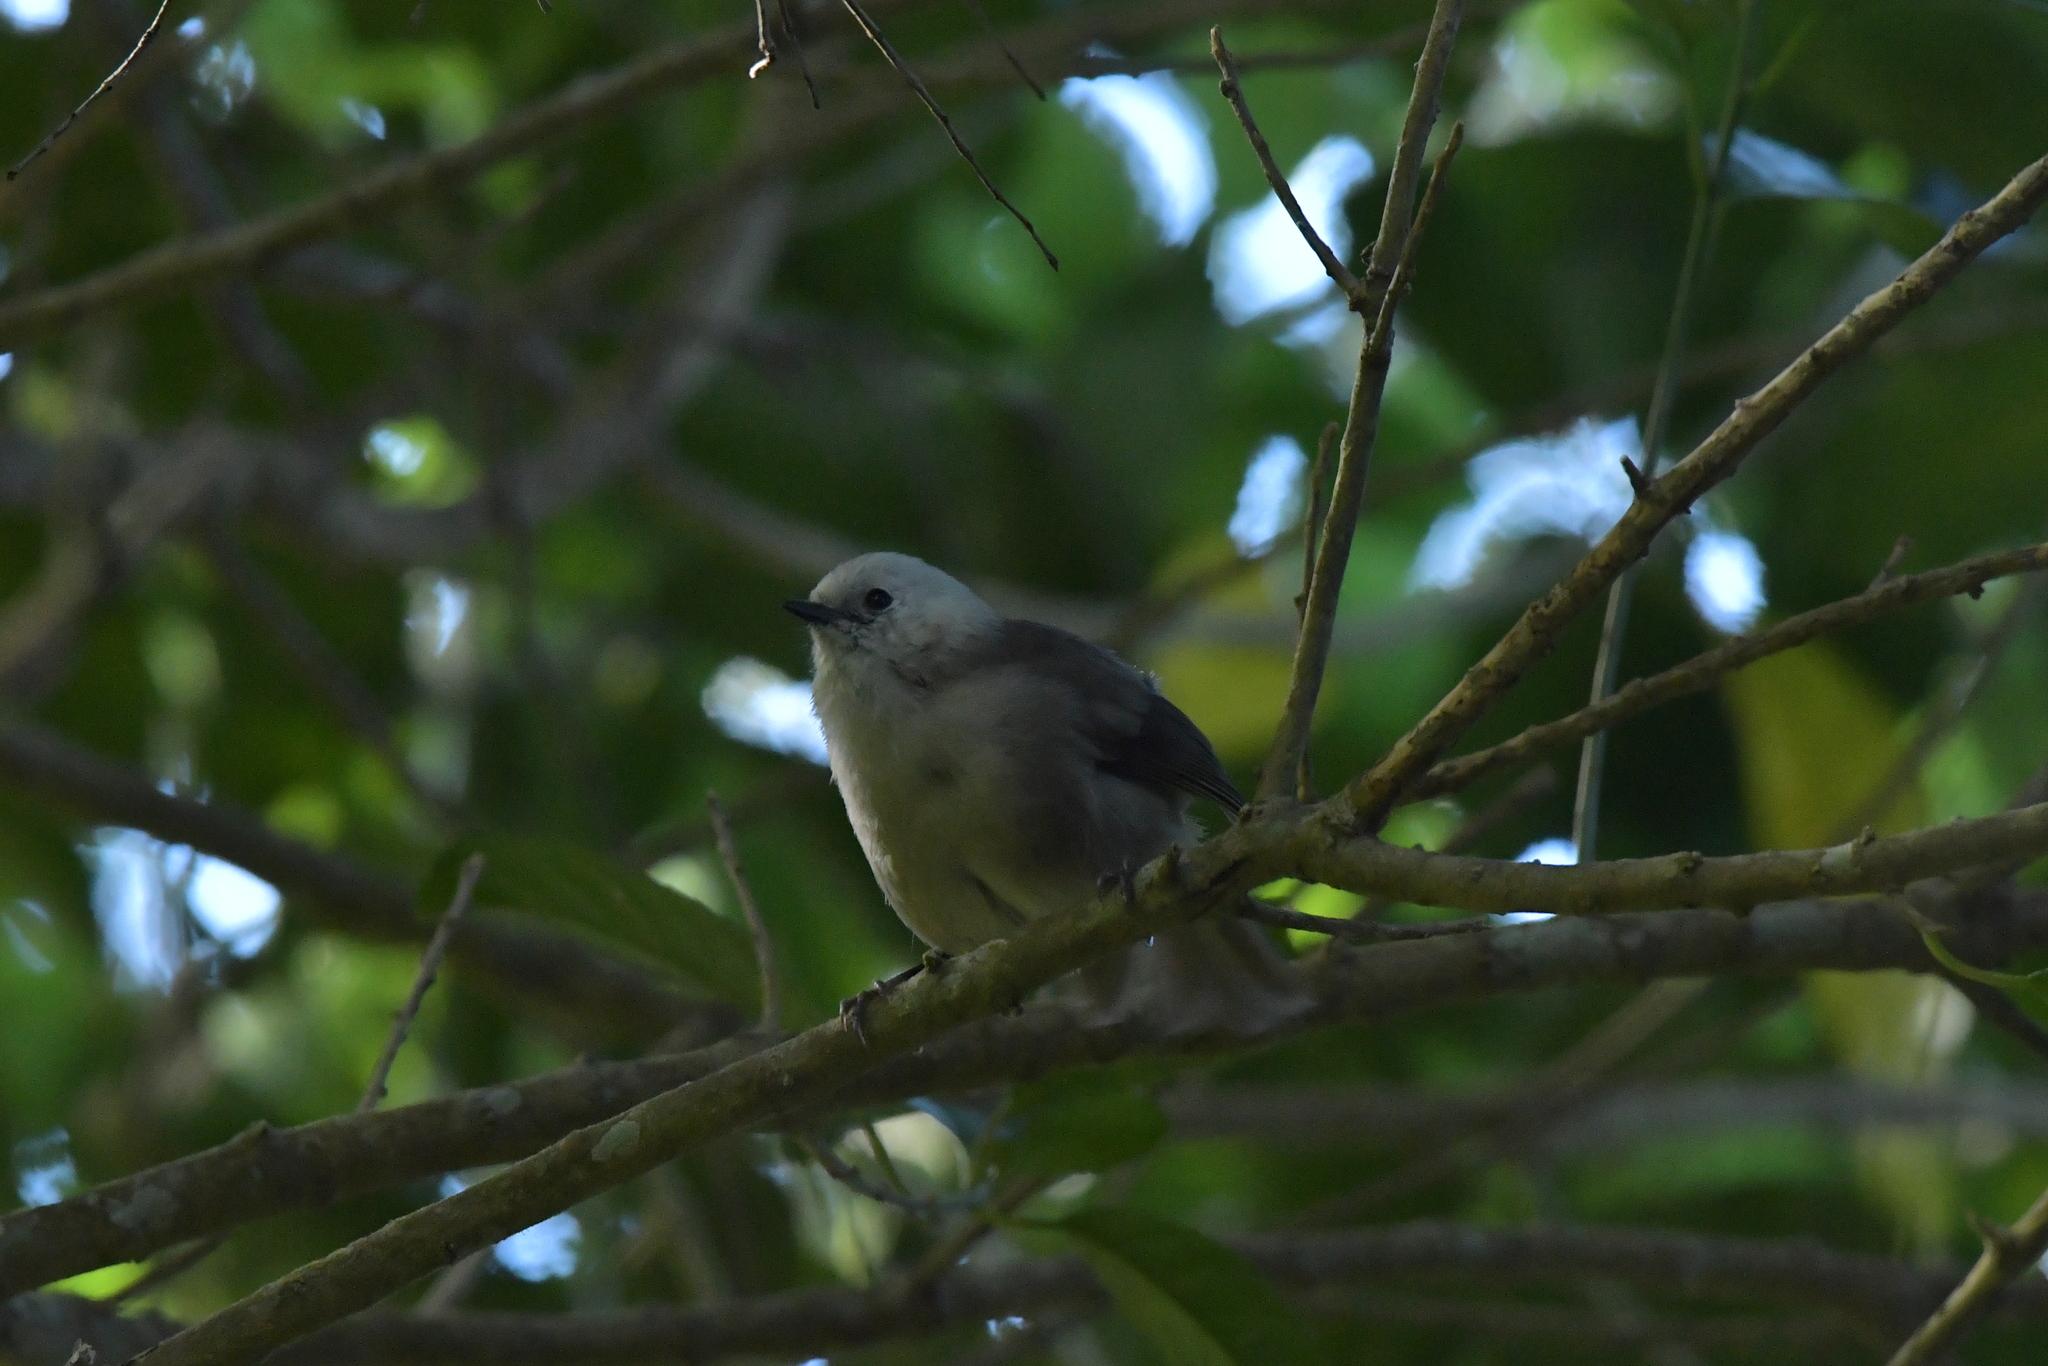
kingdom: Animalia
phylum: Chordata
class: Aves
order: Passeriformes
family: Acanthizidae
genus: Mohoua
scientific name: Mohoua albicilla
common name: Whitehead
